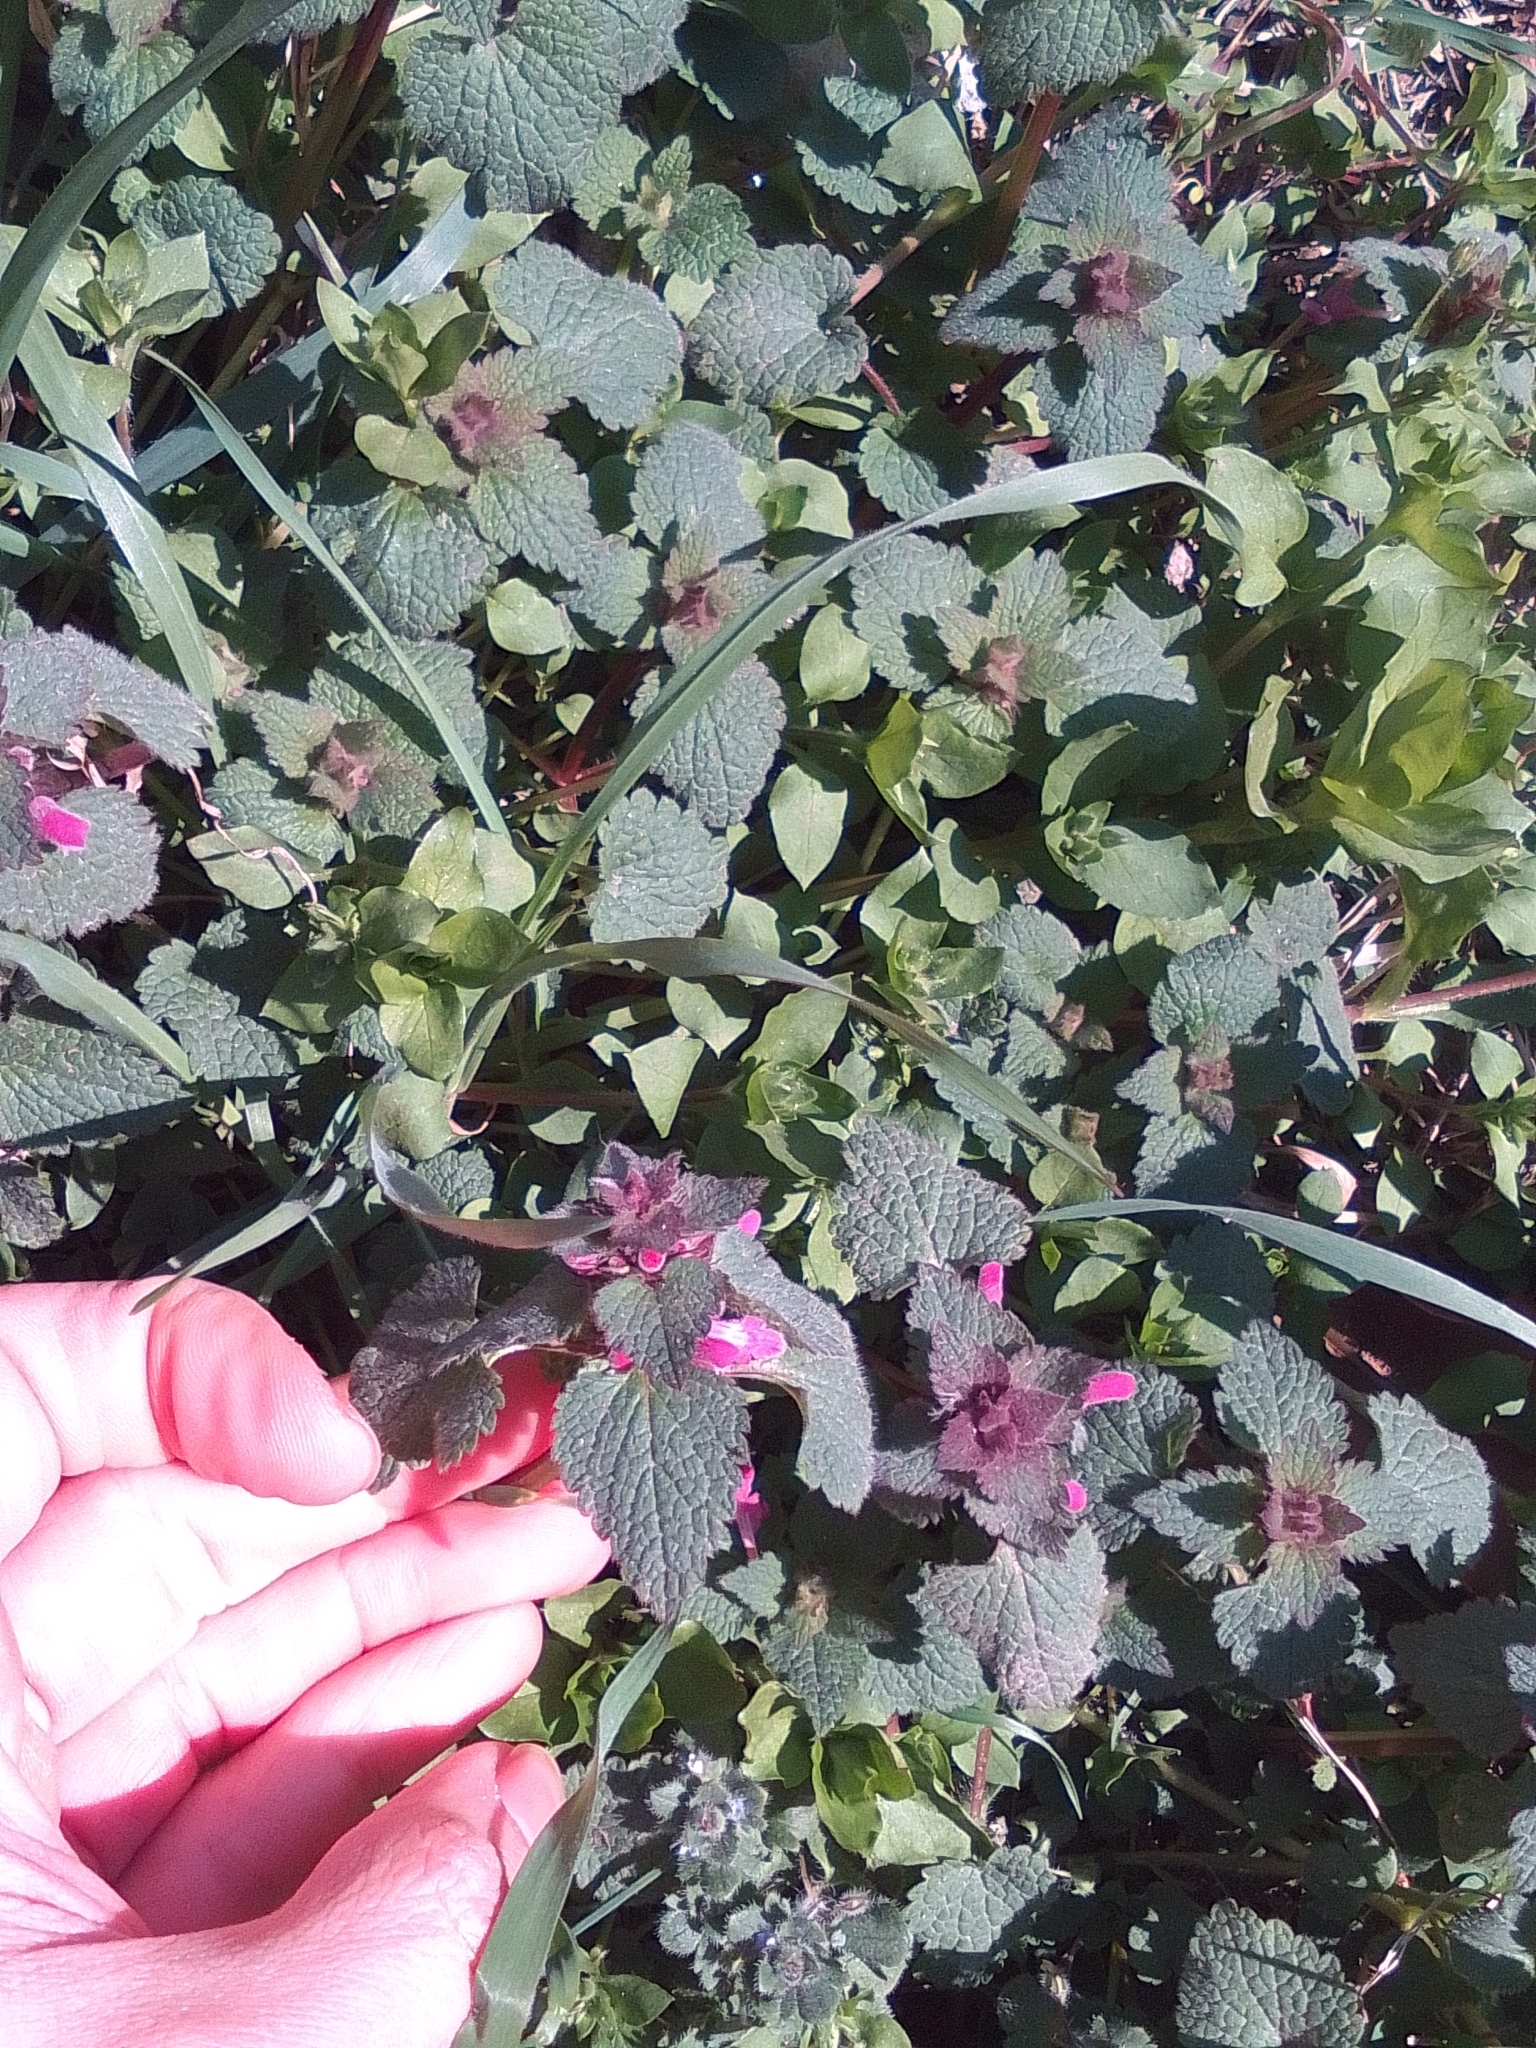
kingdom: Plantae
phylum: Tracheophyta
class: Magnoliopsida
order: Lamiales
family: Lamiaceae
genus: Lamium
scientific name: Lamium purpureum
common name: Red dead-nettle
